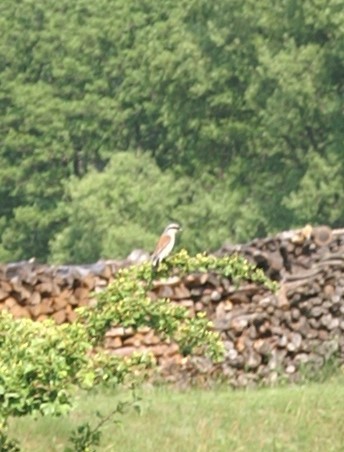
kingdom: Animalia
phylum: Chordata
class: Aves
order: Passeriformes
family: Laniidae
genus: Lanius
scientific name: Lanius collurio
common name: Red-backed shrike
